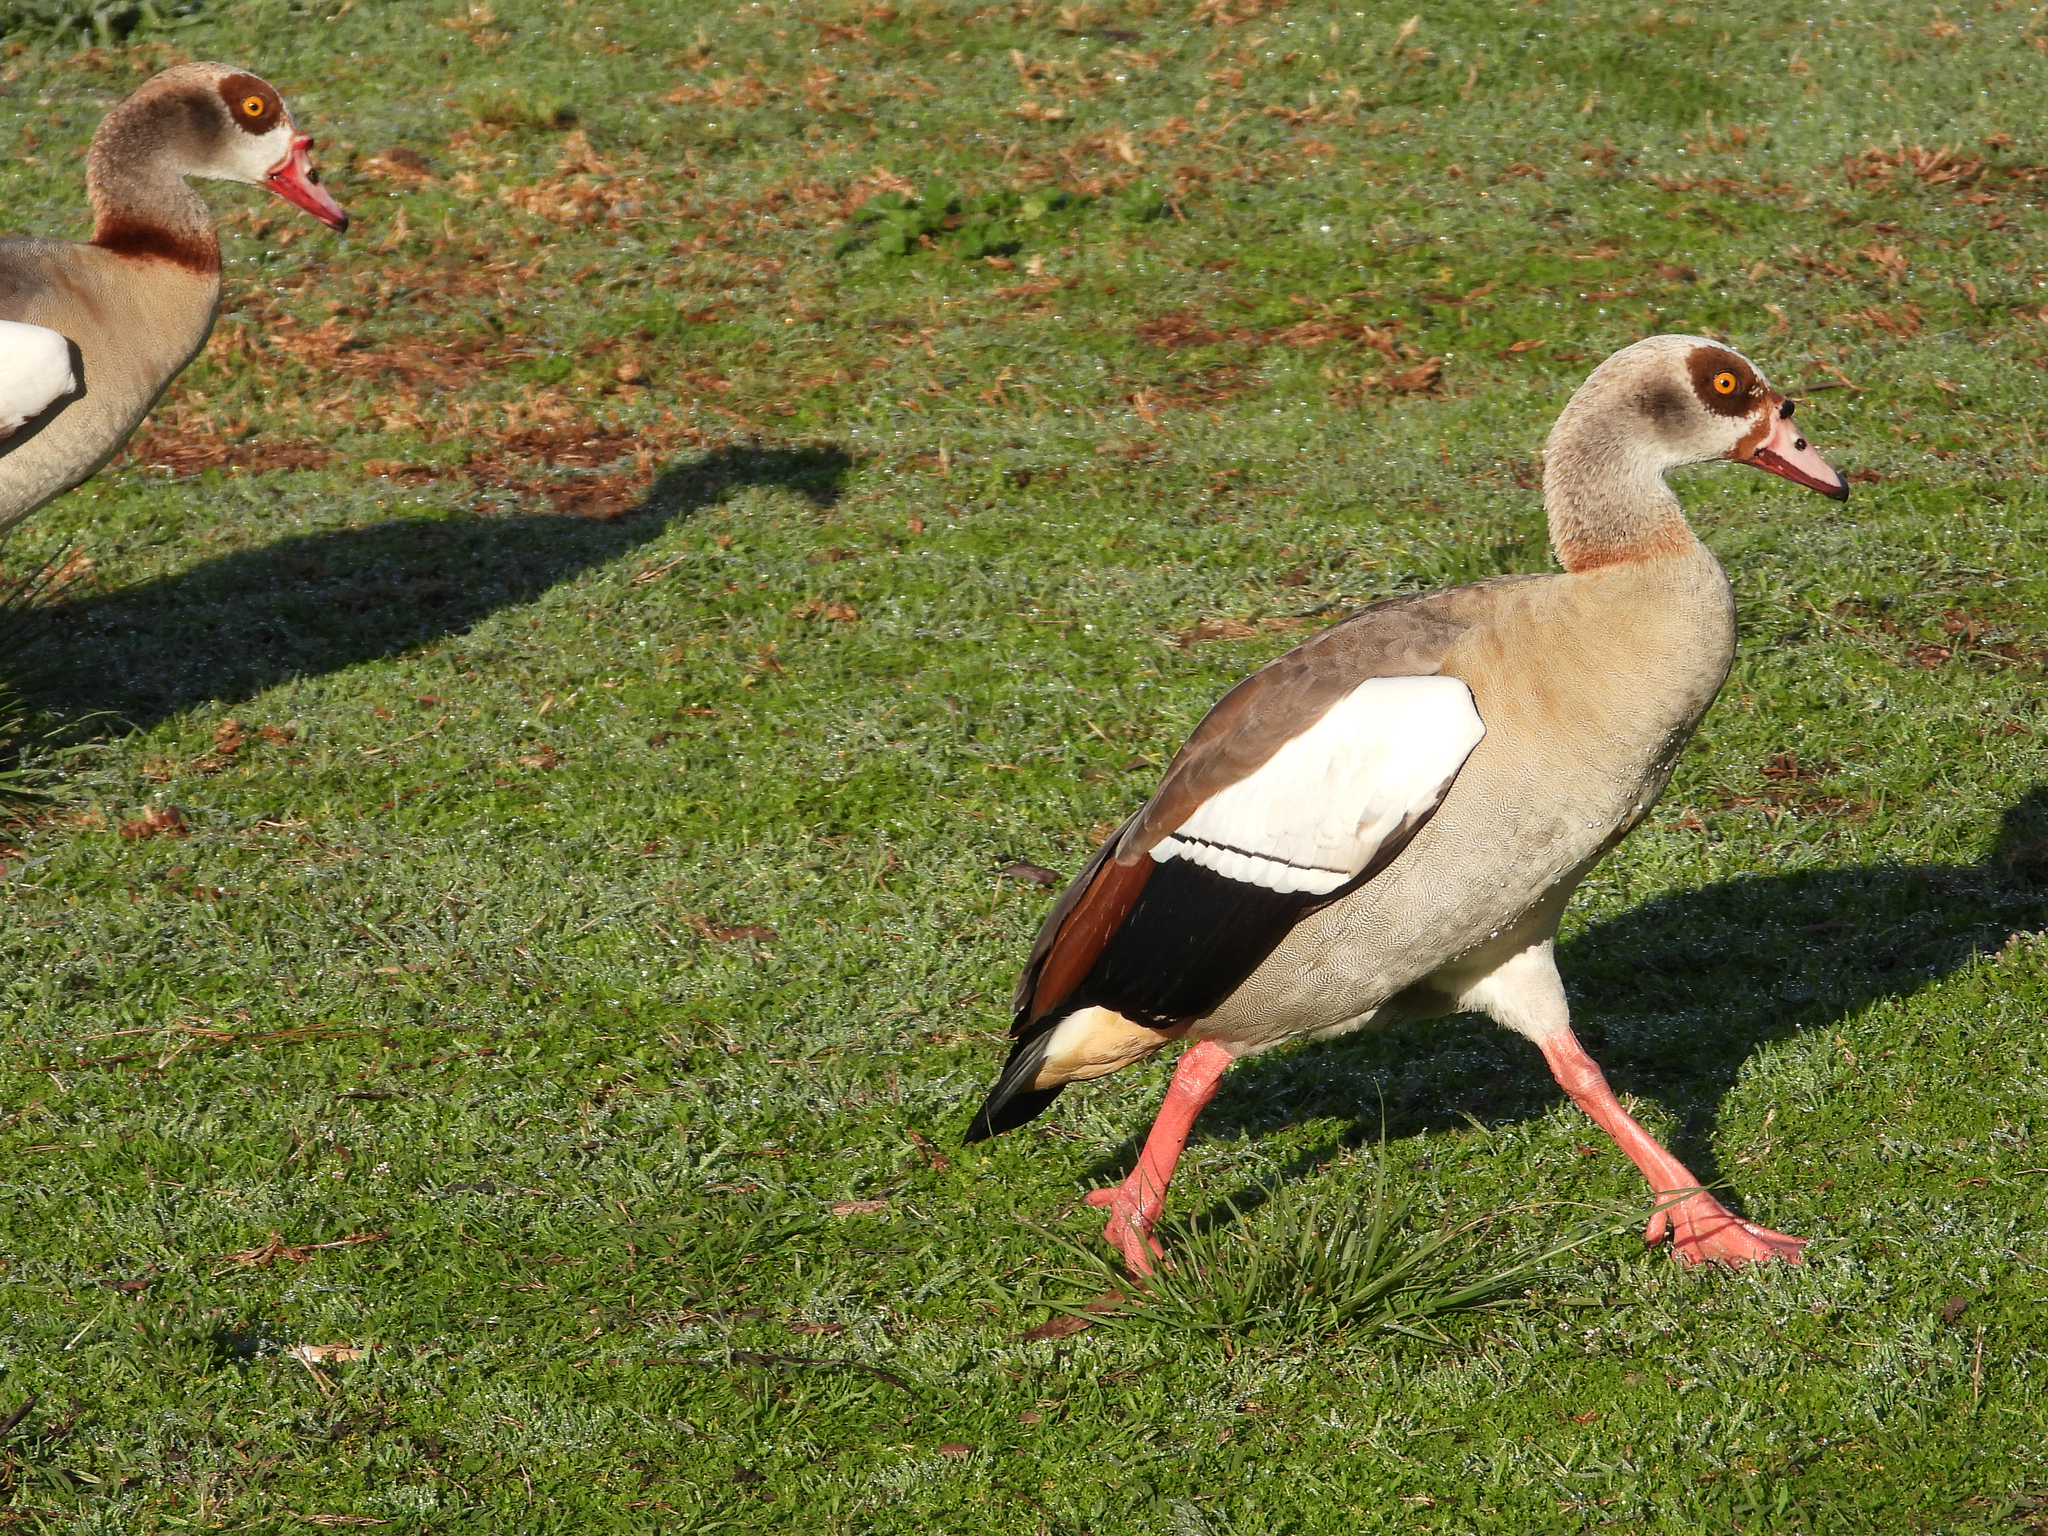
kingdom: Animalia
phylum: Chordata
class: Aves
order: Anseriformes
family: Anatidae
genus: Alopochen
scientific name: Alopochen aegyptiaca
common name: Egyptian goose
